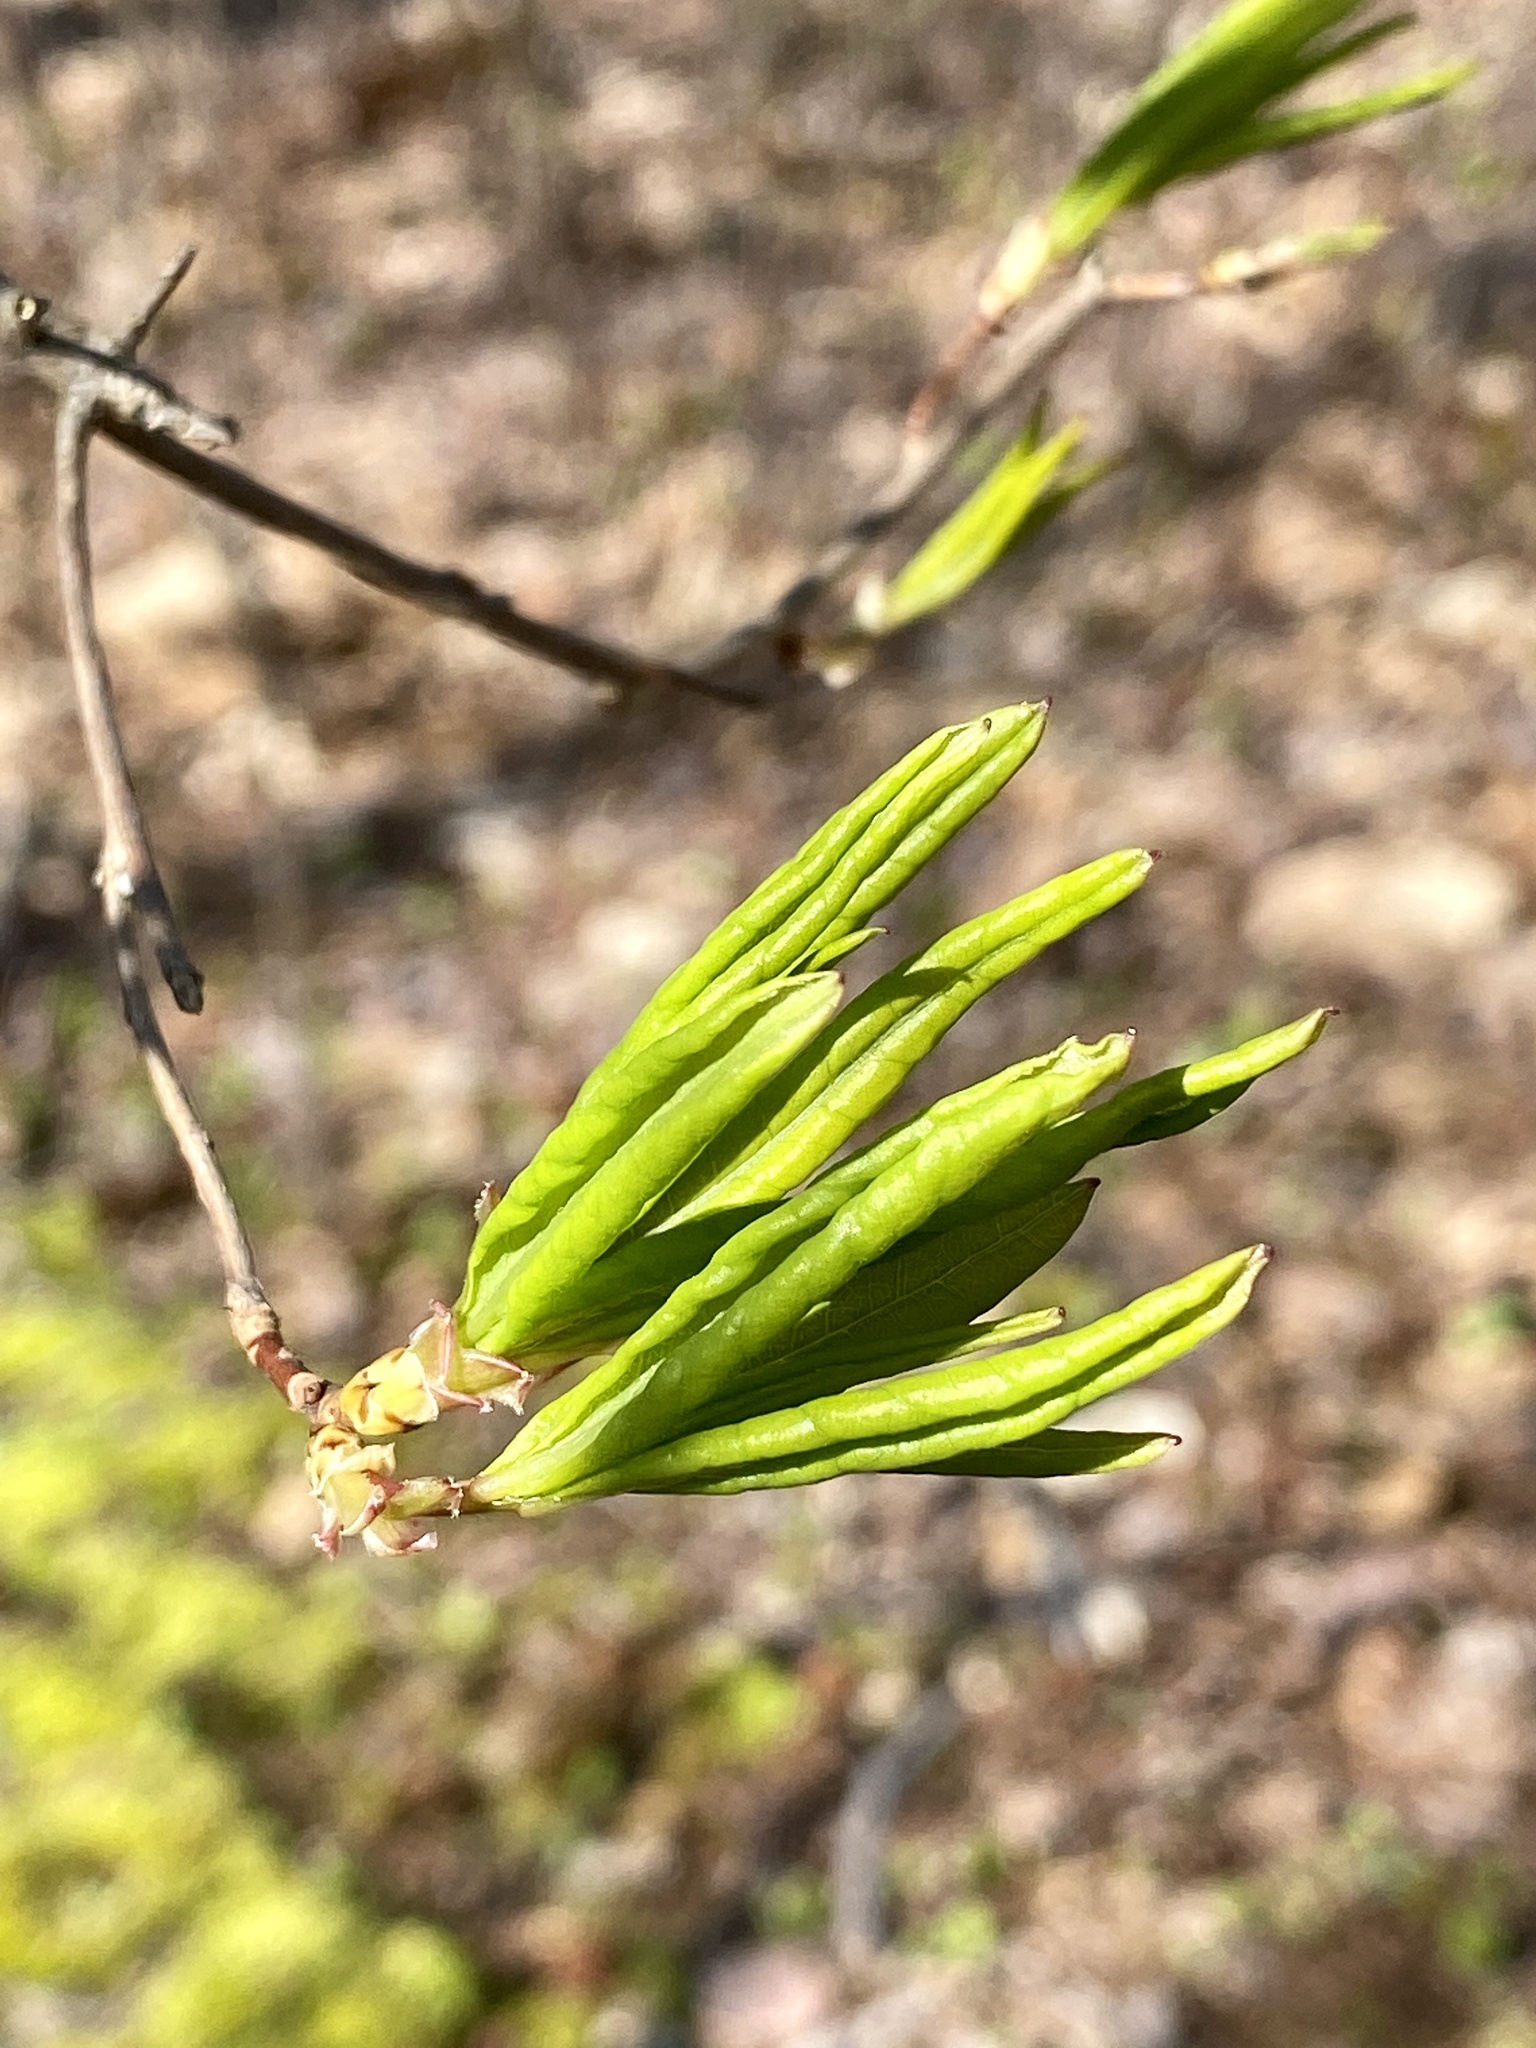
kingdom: Plantae
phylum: Tracheophyta
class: Magnoliopsida
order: Ericales
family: Ericaceae
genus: Rhododendron
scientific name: Rhododendron viscosum
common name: Clammy azalea
